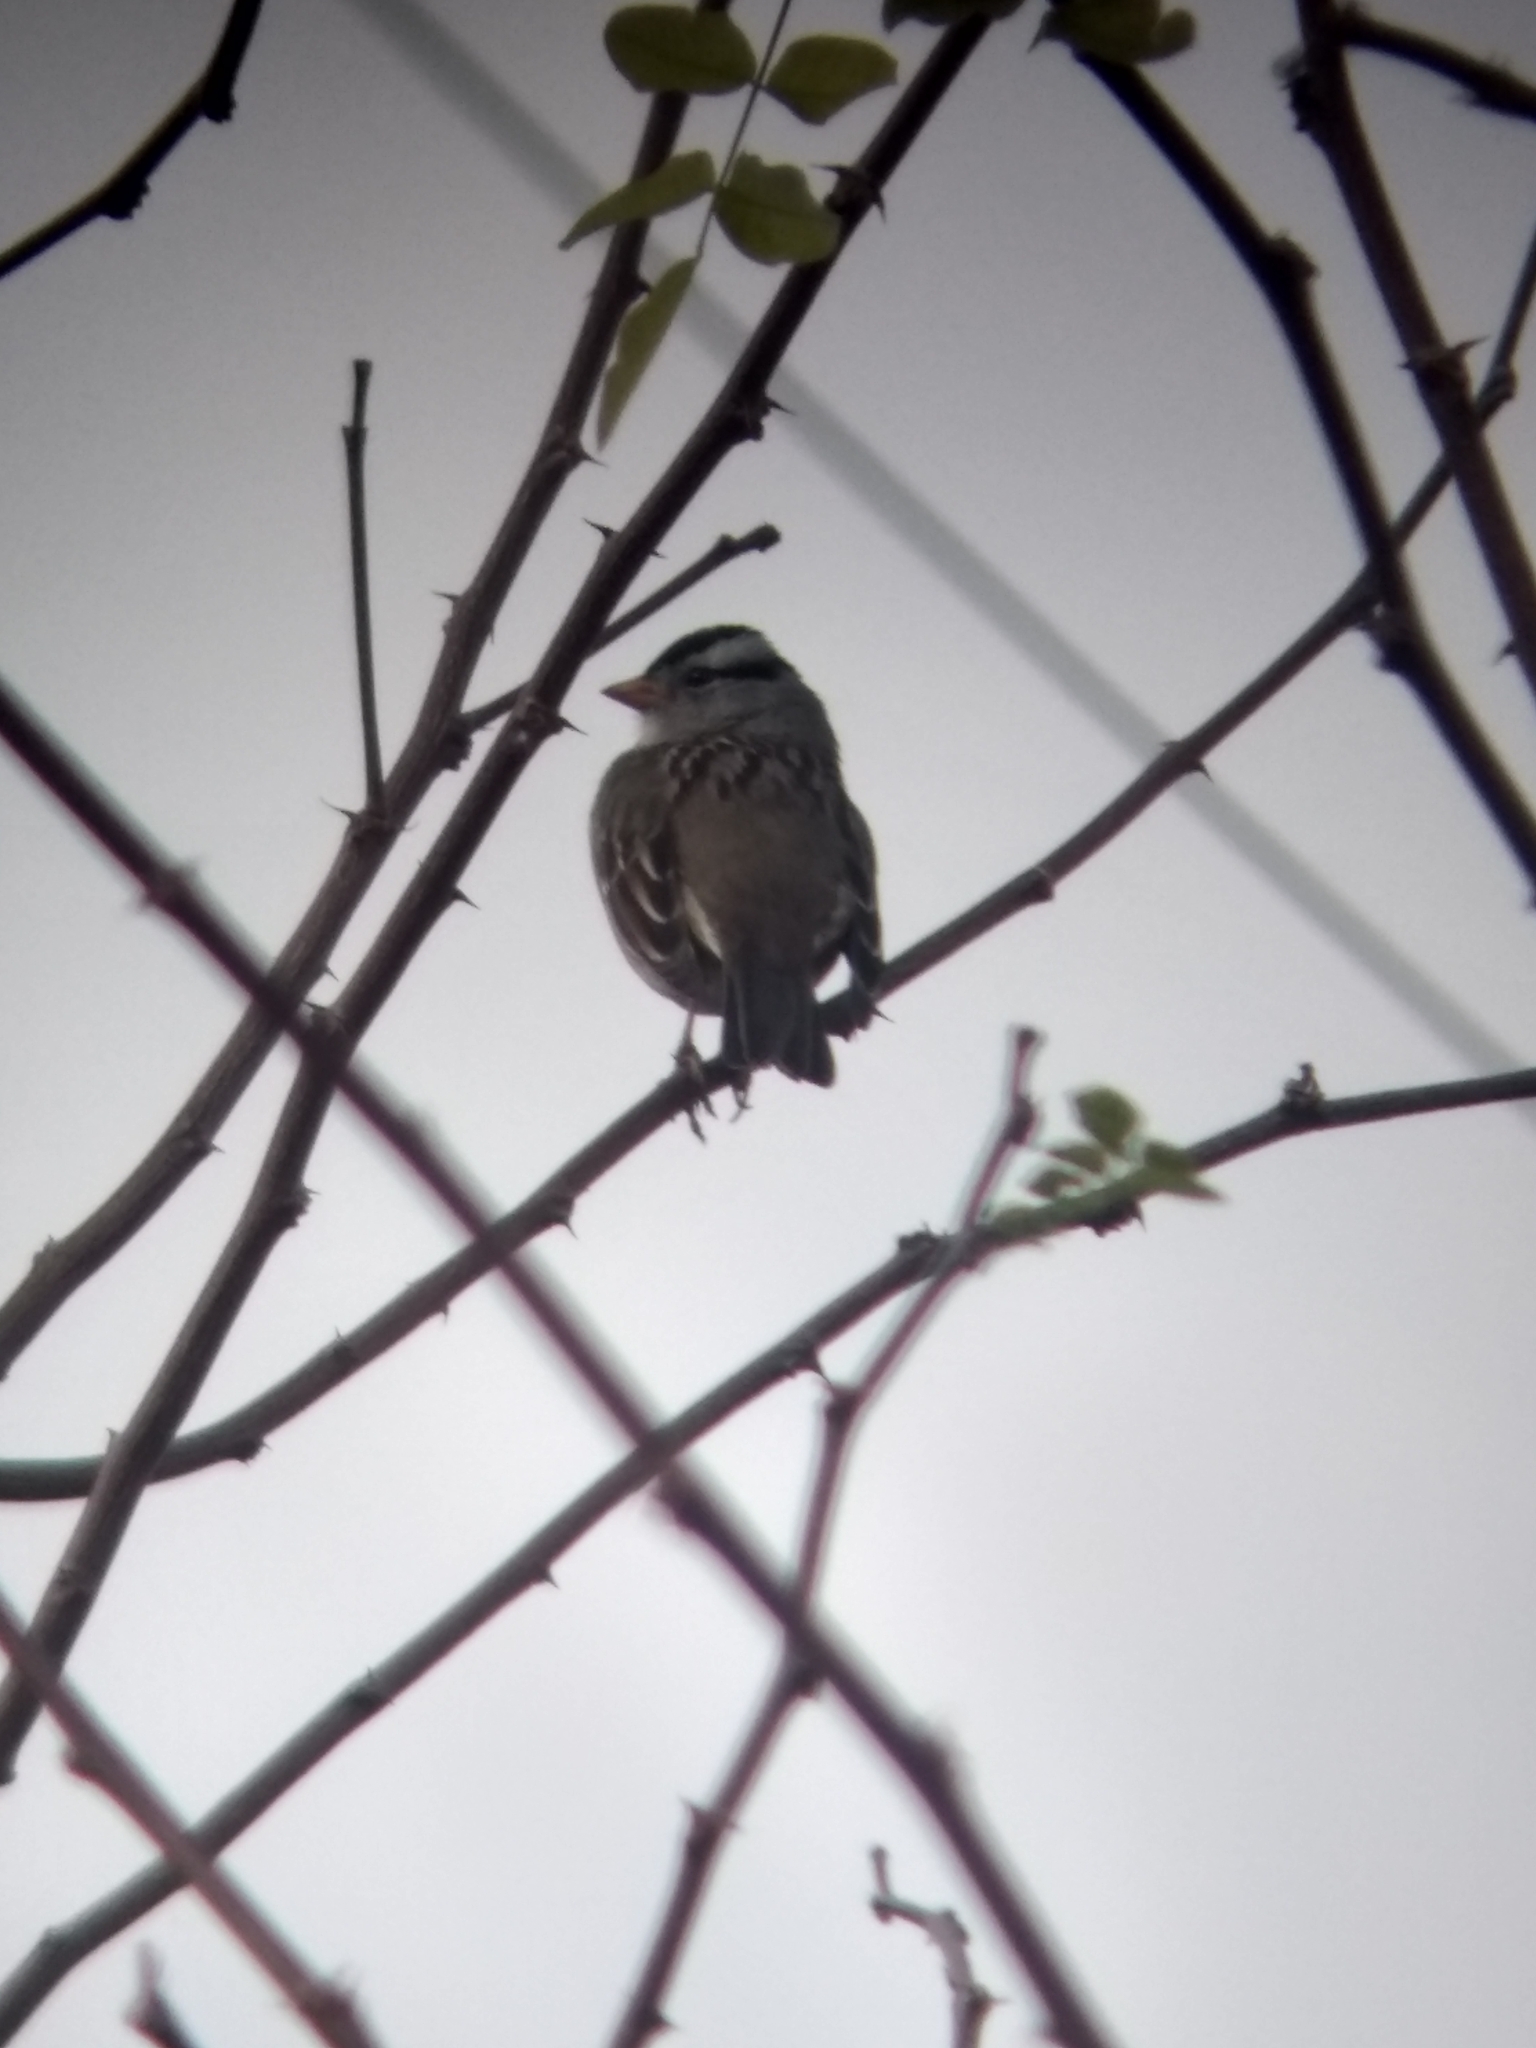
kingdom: Animalia
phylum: Chordata
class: Aves
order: Passeriformes
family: Passerellidae
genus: Zonotrichia
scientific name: Zonotrichia leucophrys
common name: White-crowned sparrow
